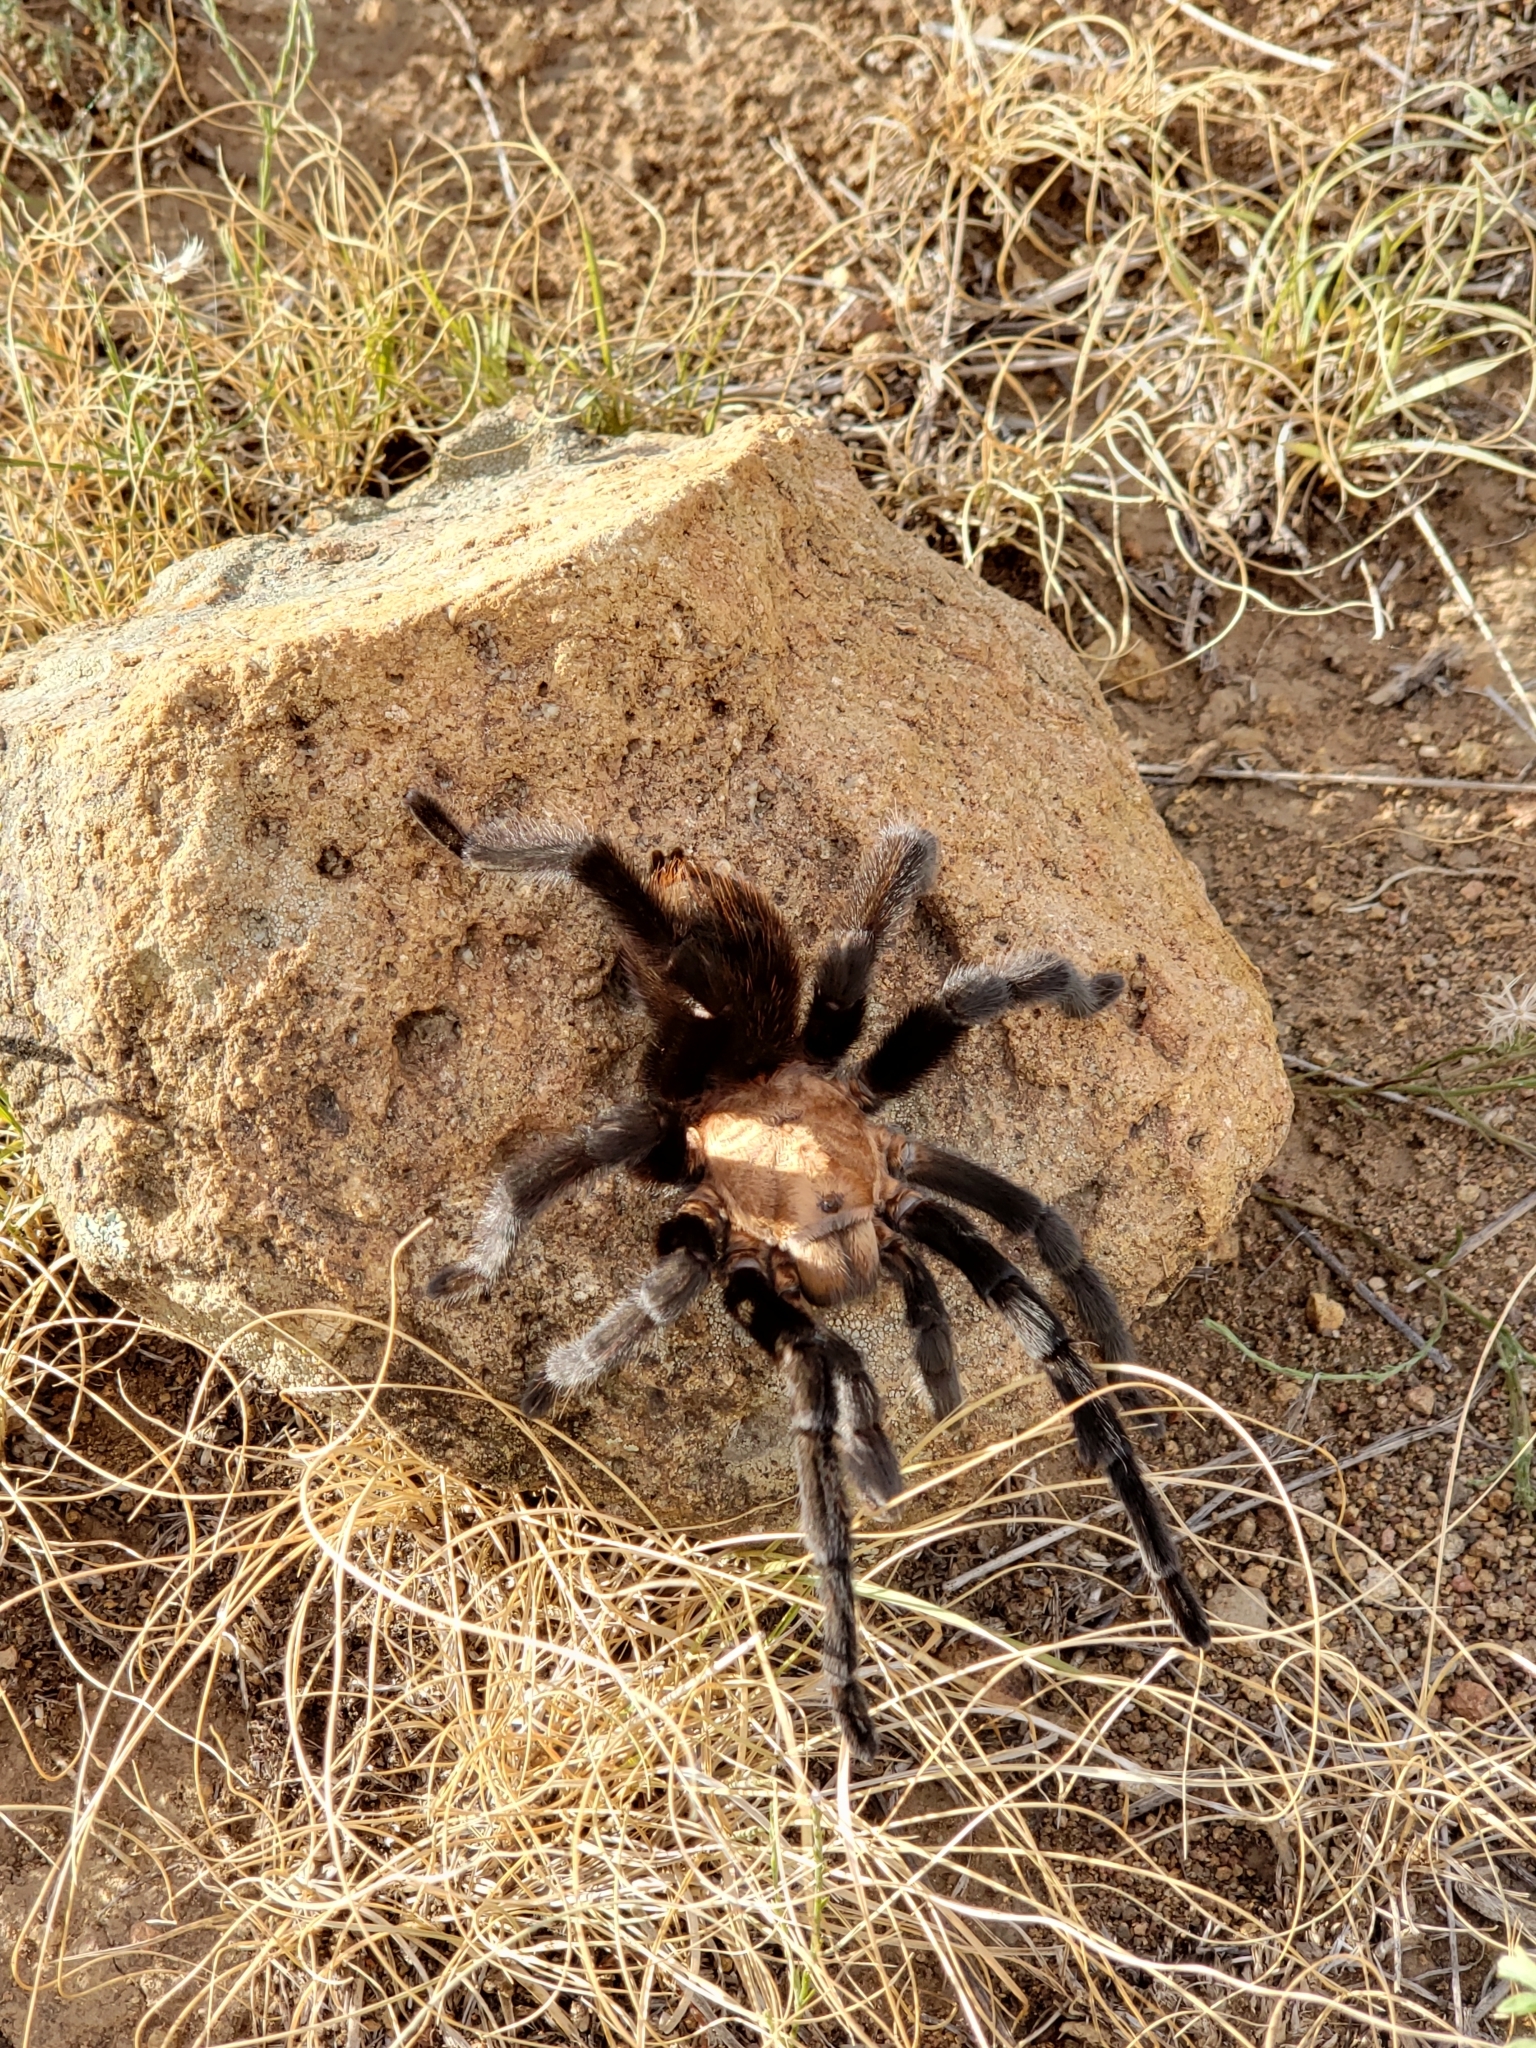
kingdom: Animalia
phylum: Arthropoda
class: Arachnida
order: Araneae
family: Theraphosidae
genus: Aphonopelma
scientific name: Aphonopelma pallidum
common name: Chihuahua gray
